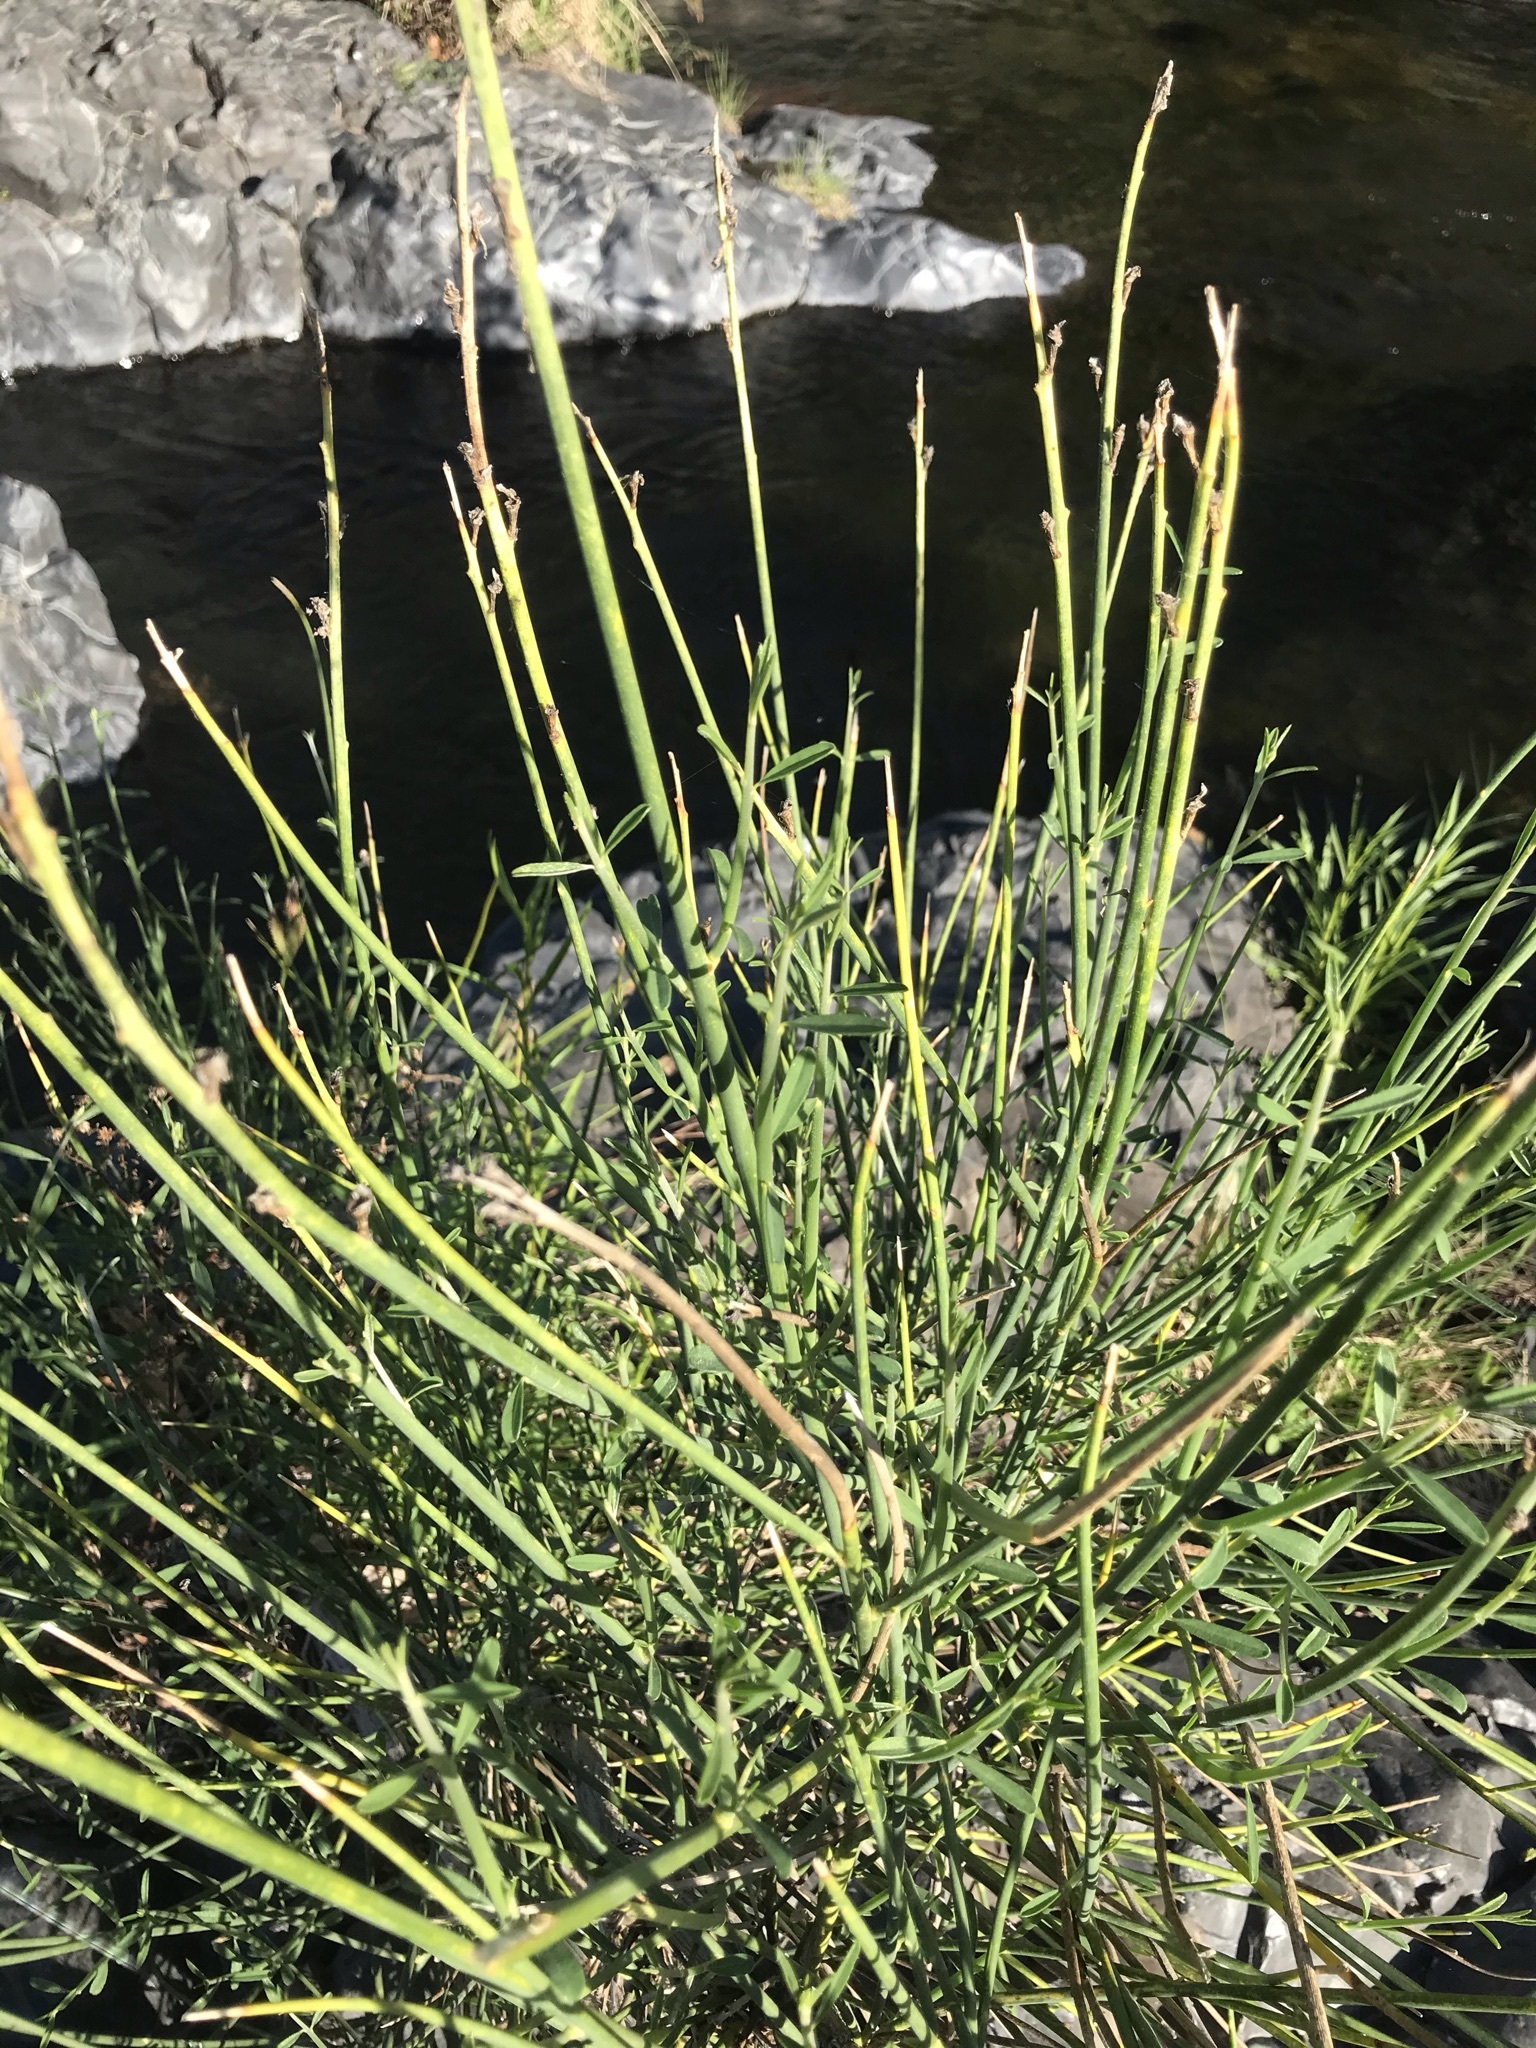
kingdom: Plantae
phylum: Tracheophyta
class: Magnoliopsida
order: Fabales
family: Fabaceae
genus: Spartium
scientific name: Spartium junceum
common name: Spanish broom
